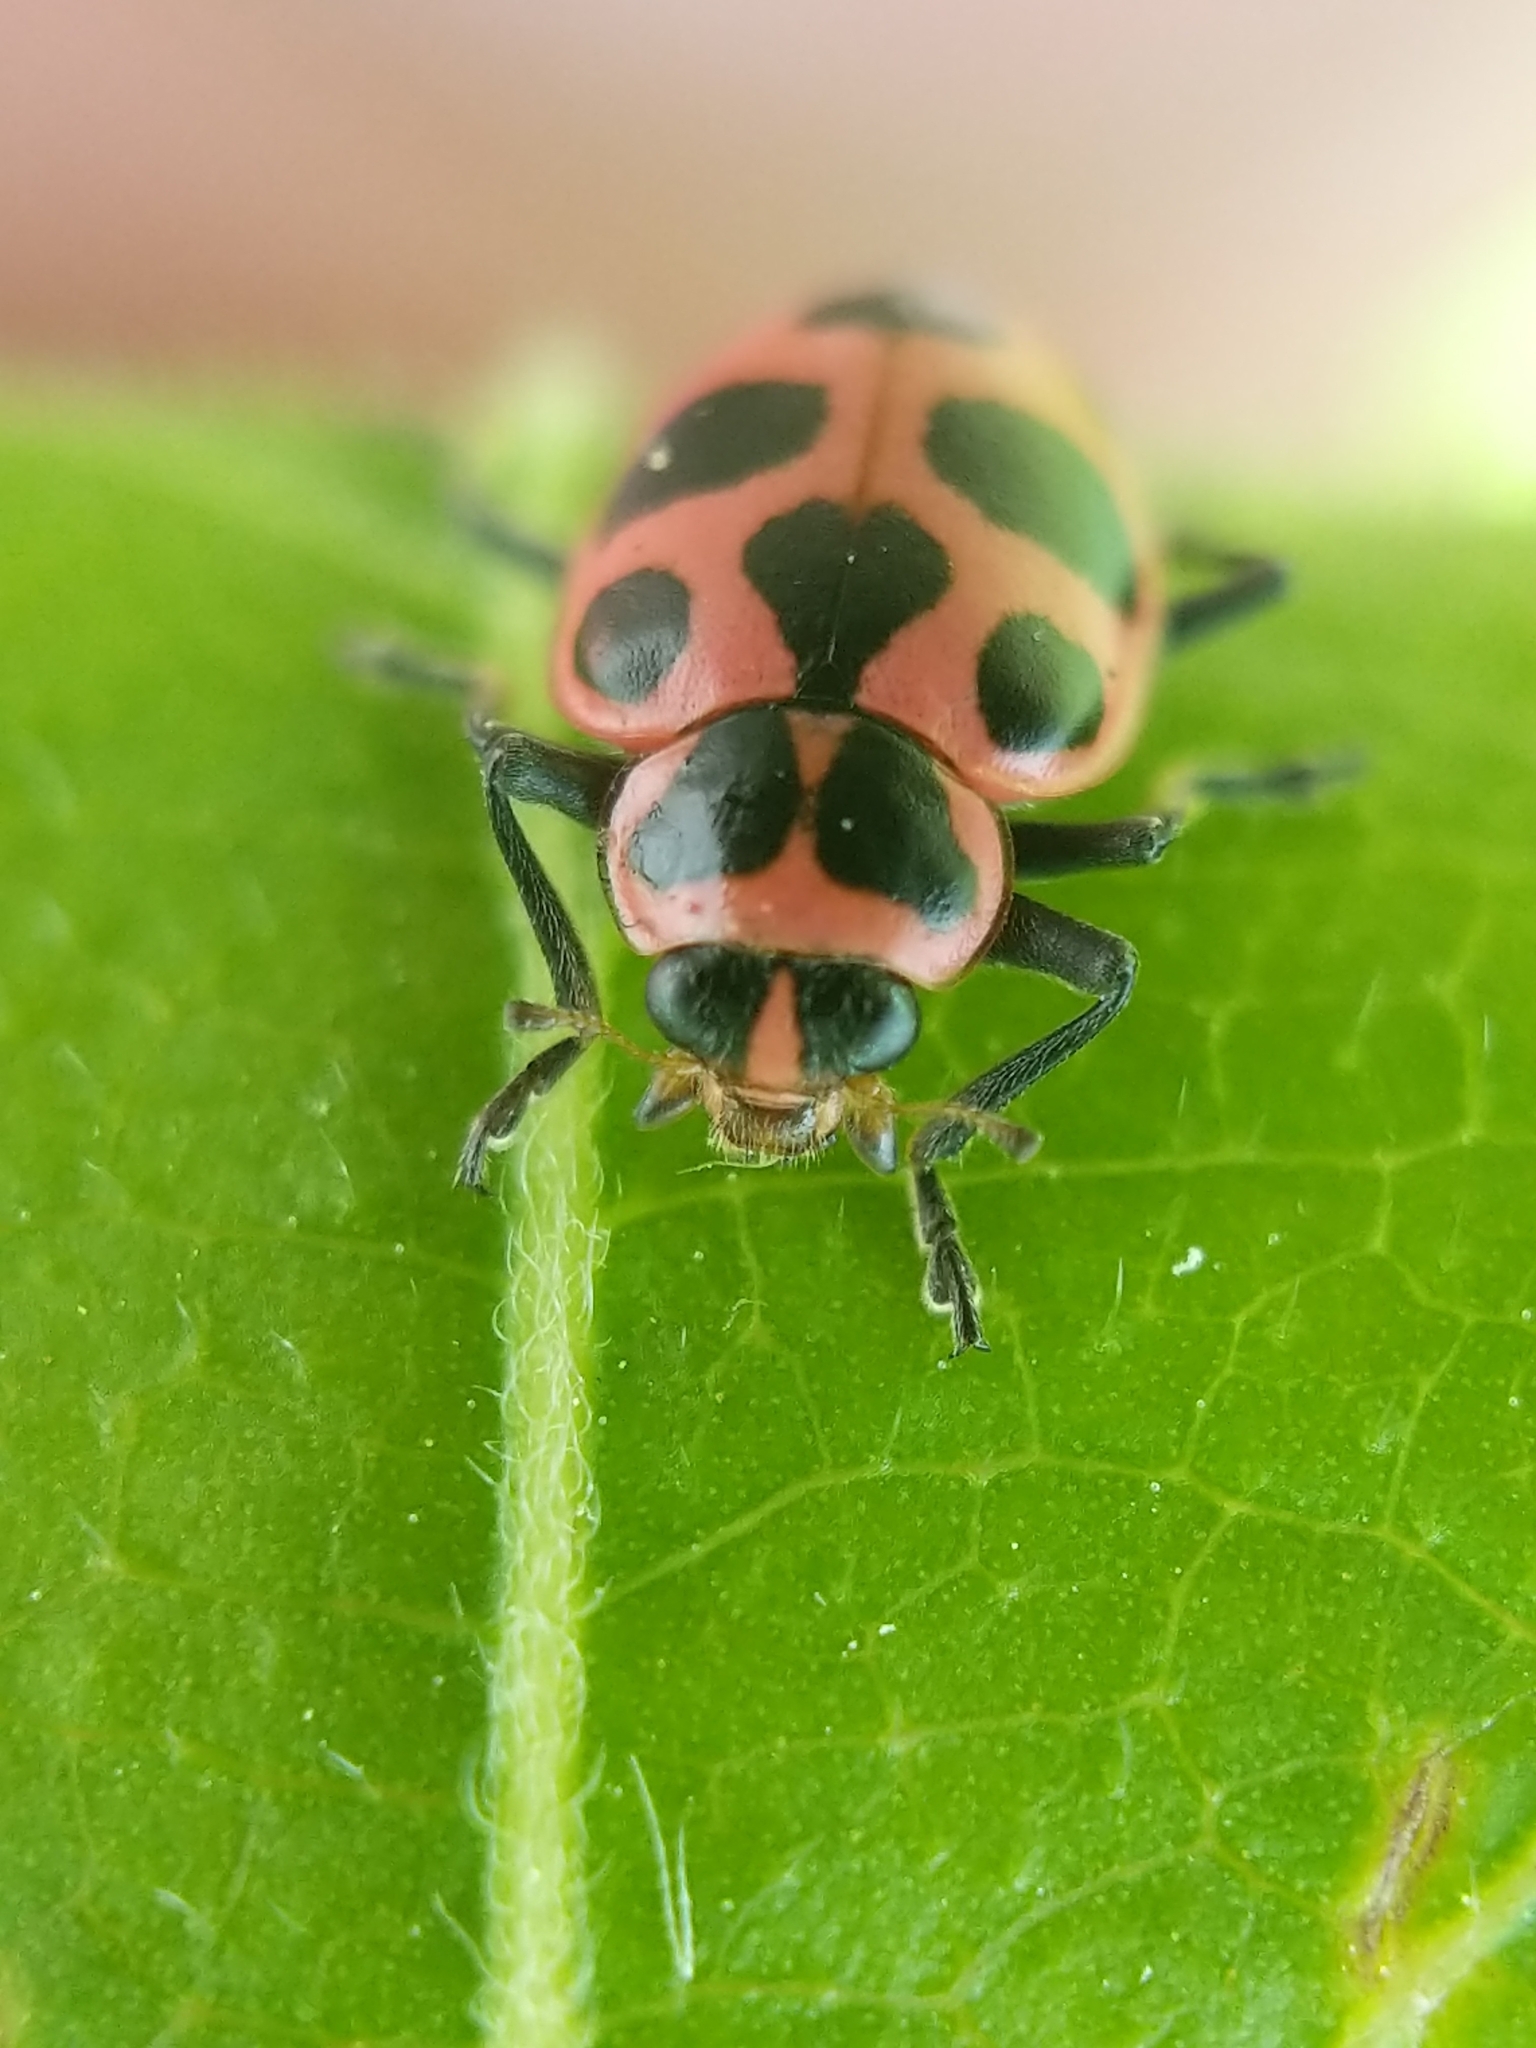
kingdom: Animalia
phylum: Arthropoda
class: Insecta
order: Coleoptera
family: Coccinellidae
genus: Coleomegilla
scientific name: Coleomegilla maculata
